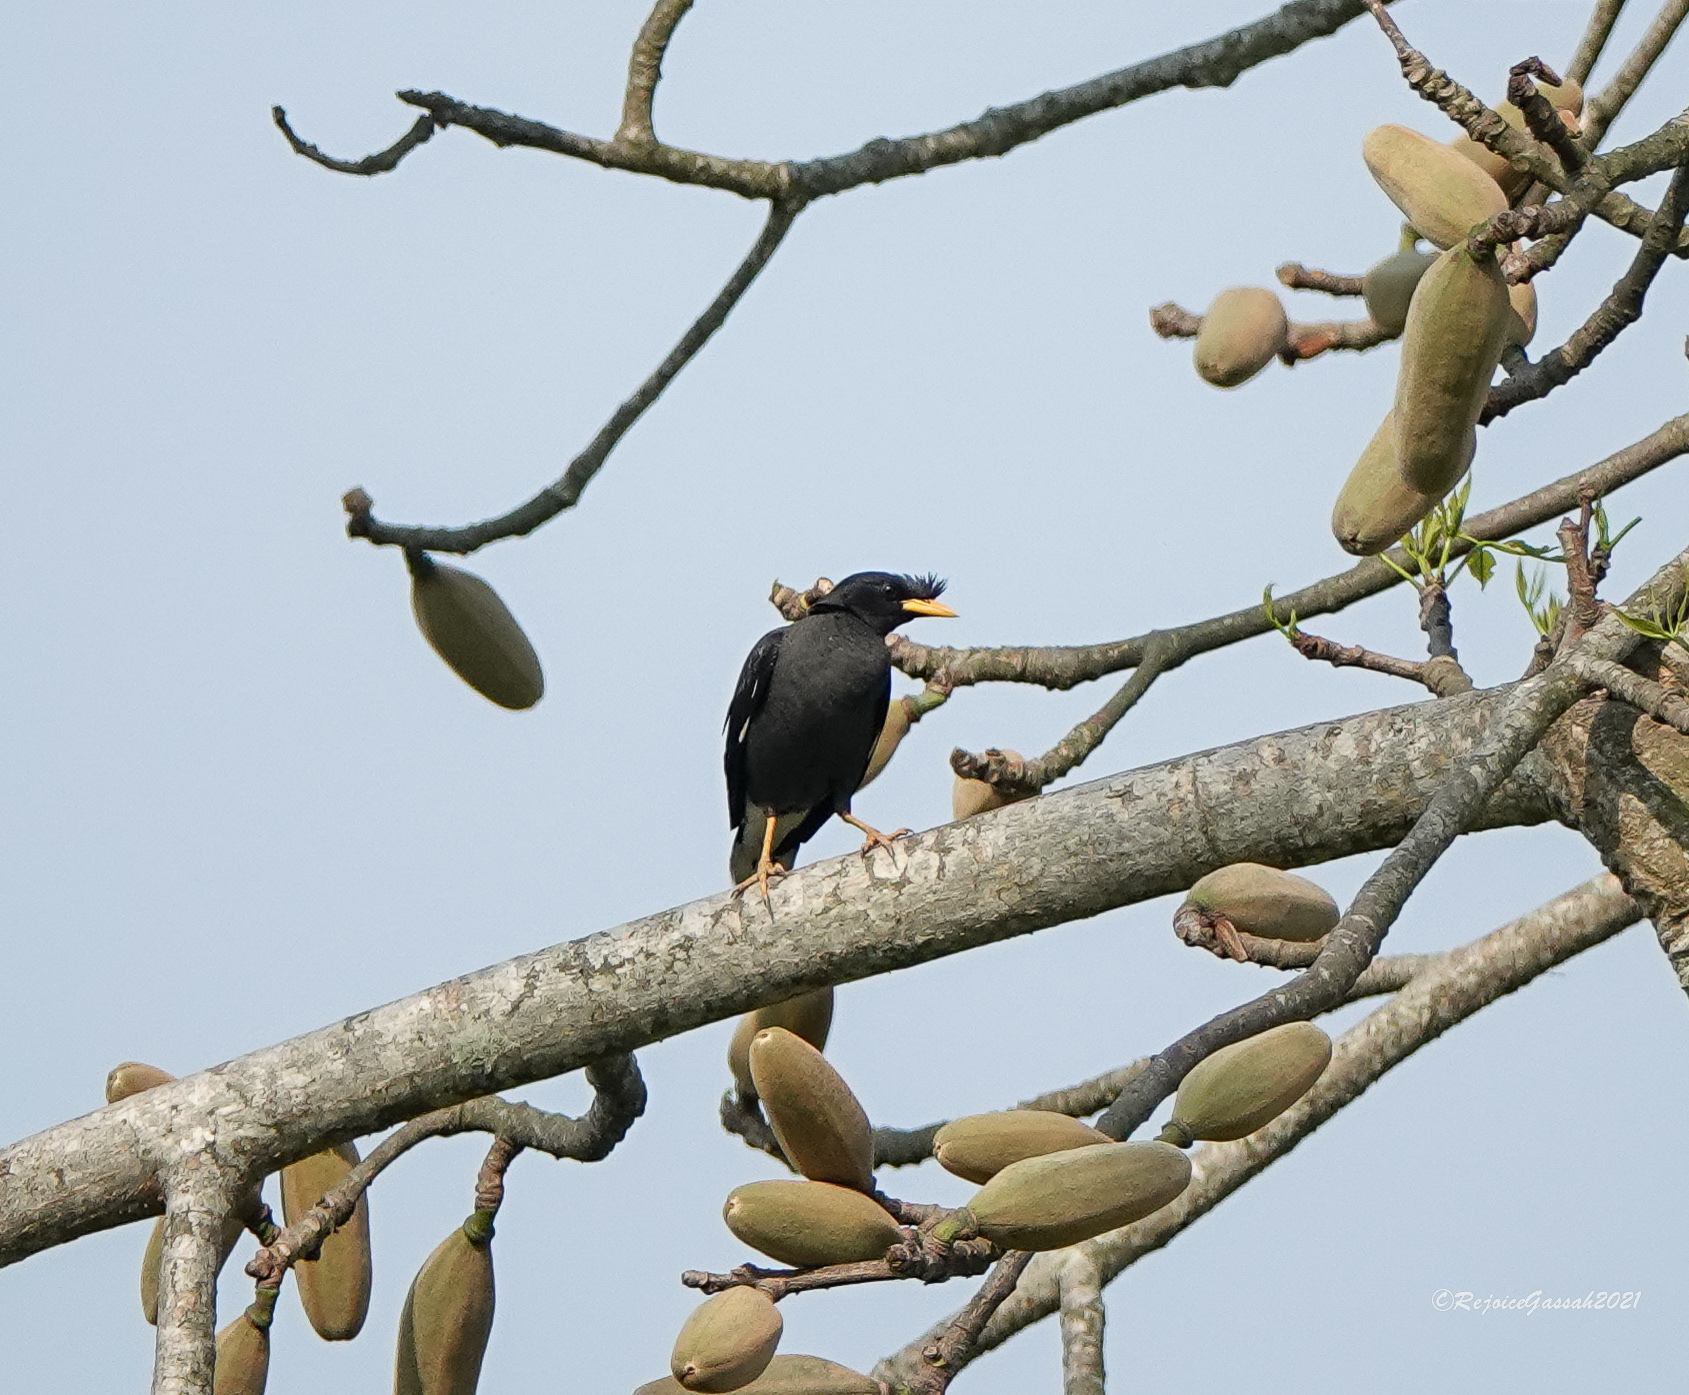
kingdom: Animalia
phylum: Chordata
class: Aves
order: Passeriformes
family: Sturnidae
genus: Acridotheres
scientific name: Acridotheres grandis
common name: Great myna
